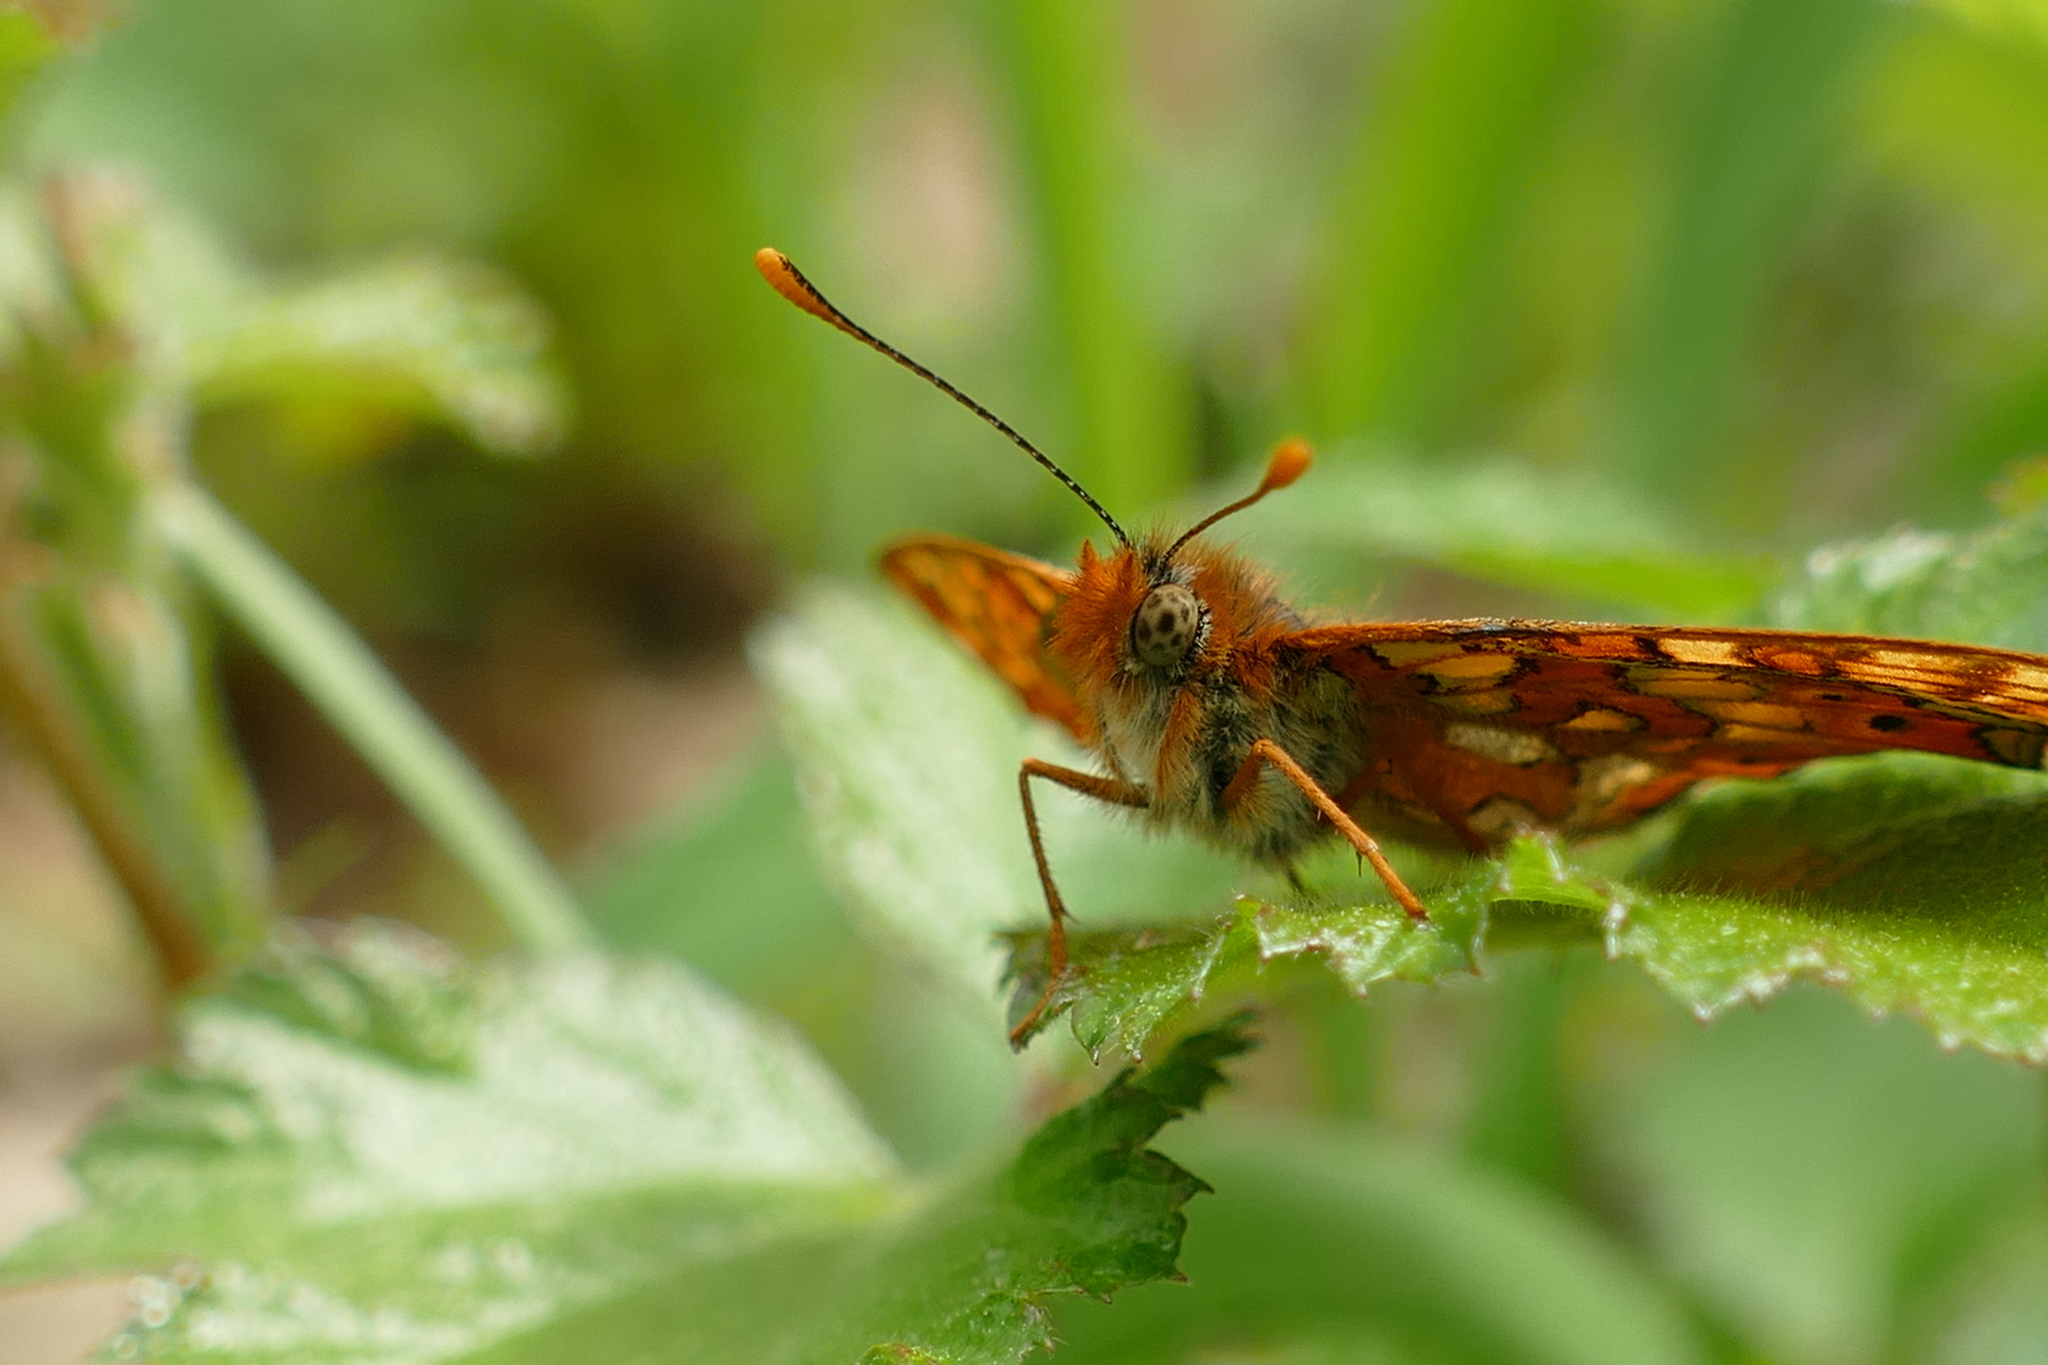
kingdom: Animalia
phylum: Arthropoda
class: Insecta
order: Lepidoptera
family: Nymphalidae
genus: Euphydryas
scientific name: Euphydryas aurinia
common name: Marsh fritillary
